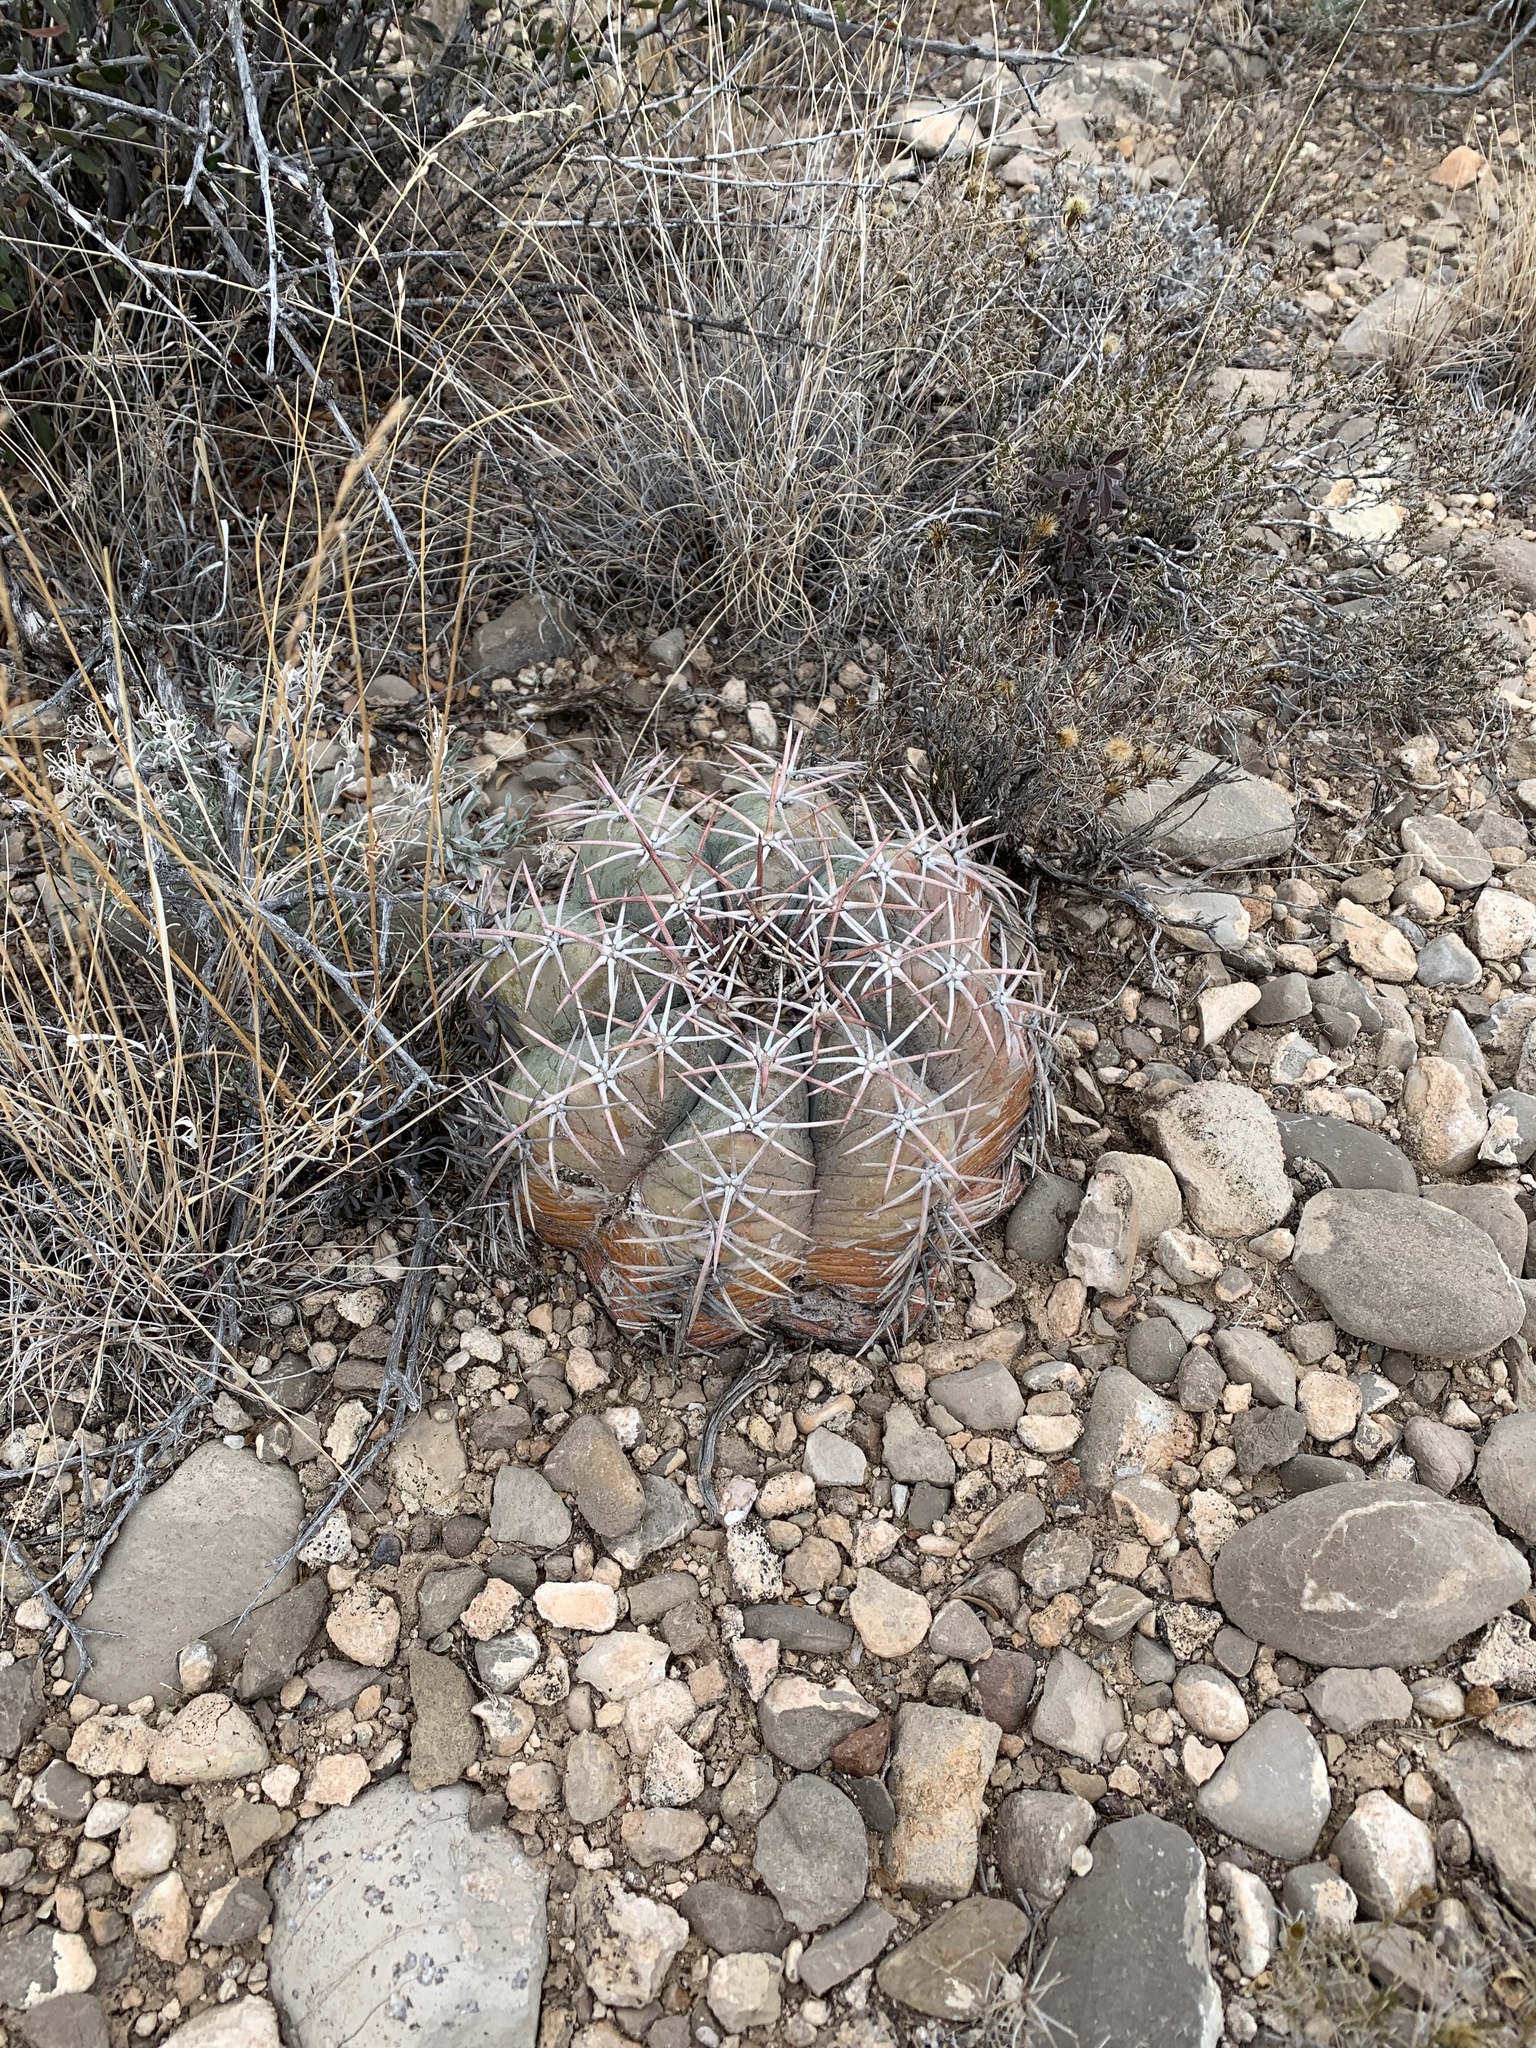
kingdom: Plantae
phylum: Tracheophyta
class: Magnoliopsida
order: Caryophyllales
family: Cactaceae
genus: Echinocactus
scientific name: Echinocactus horizonthalonius
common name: Devilshead
